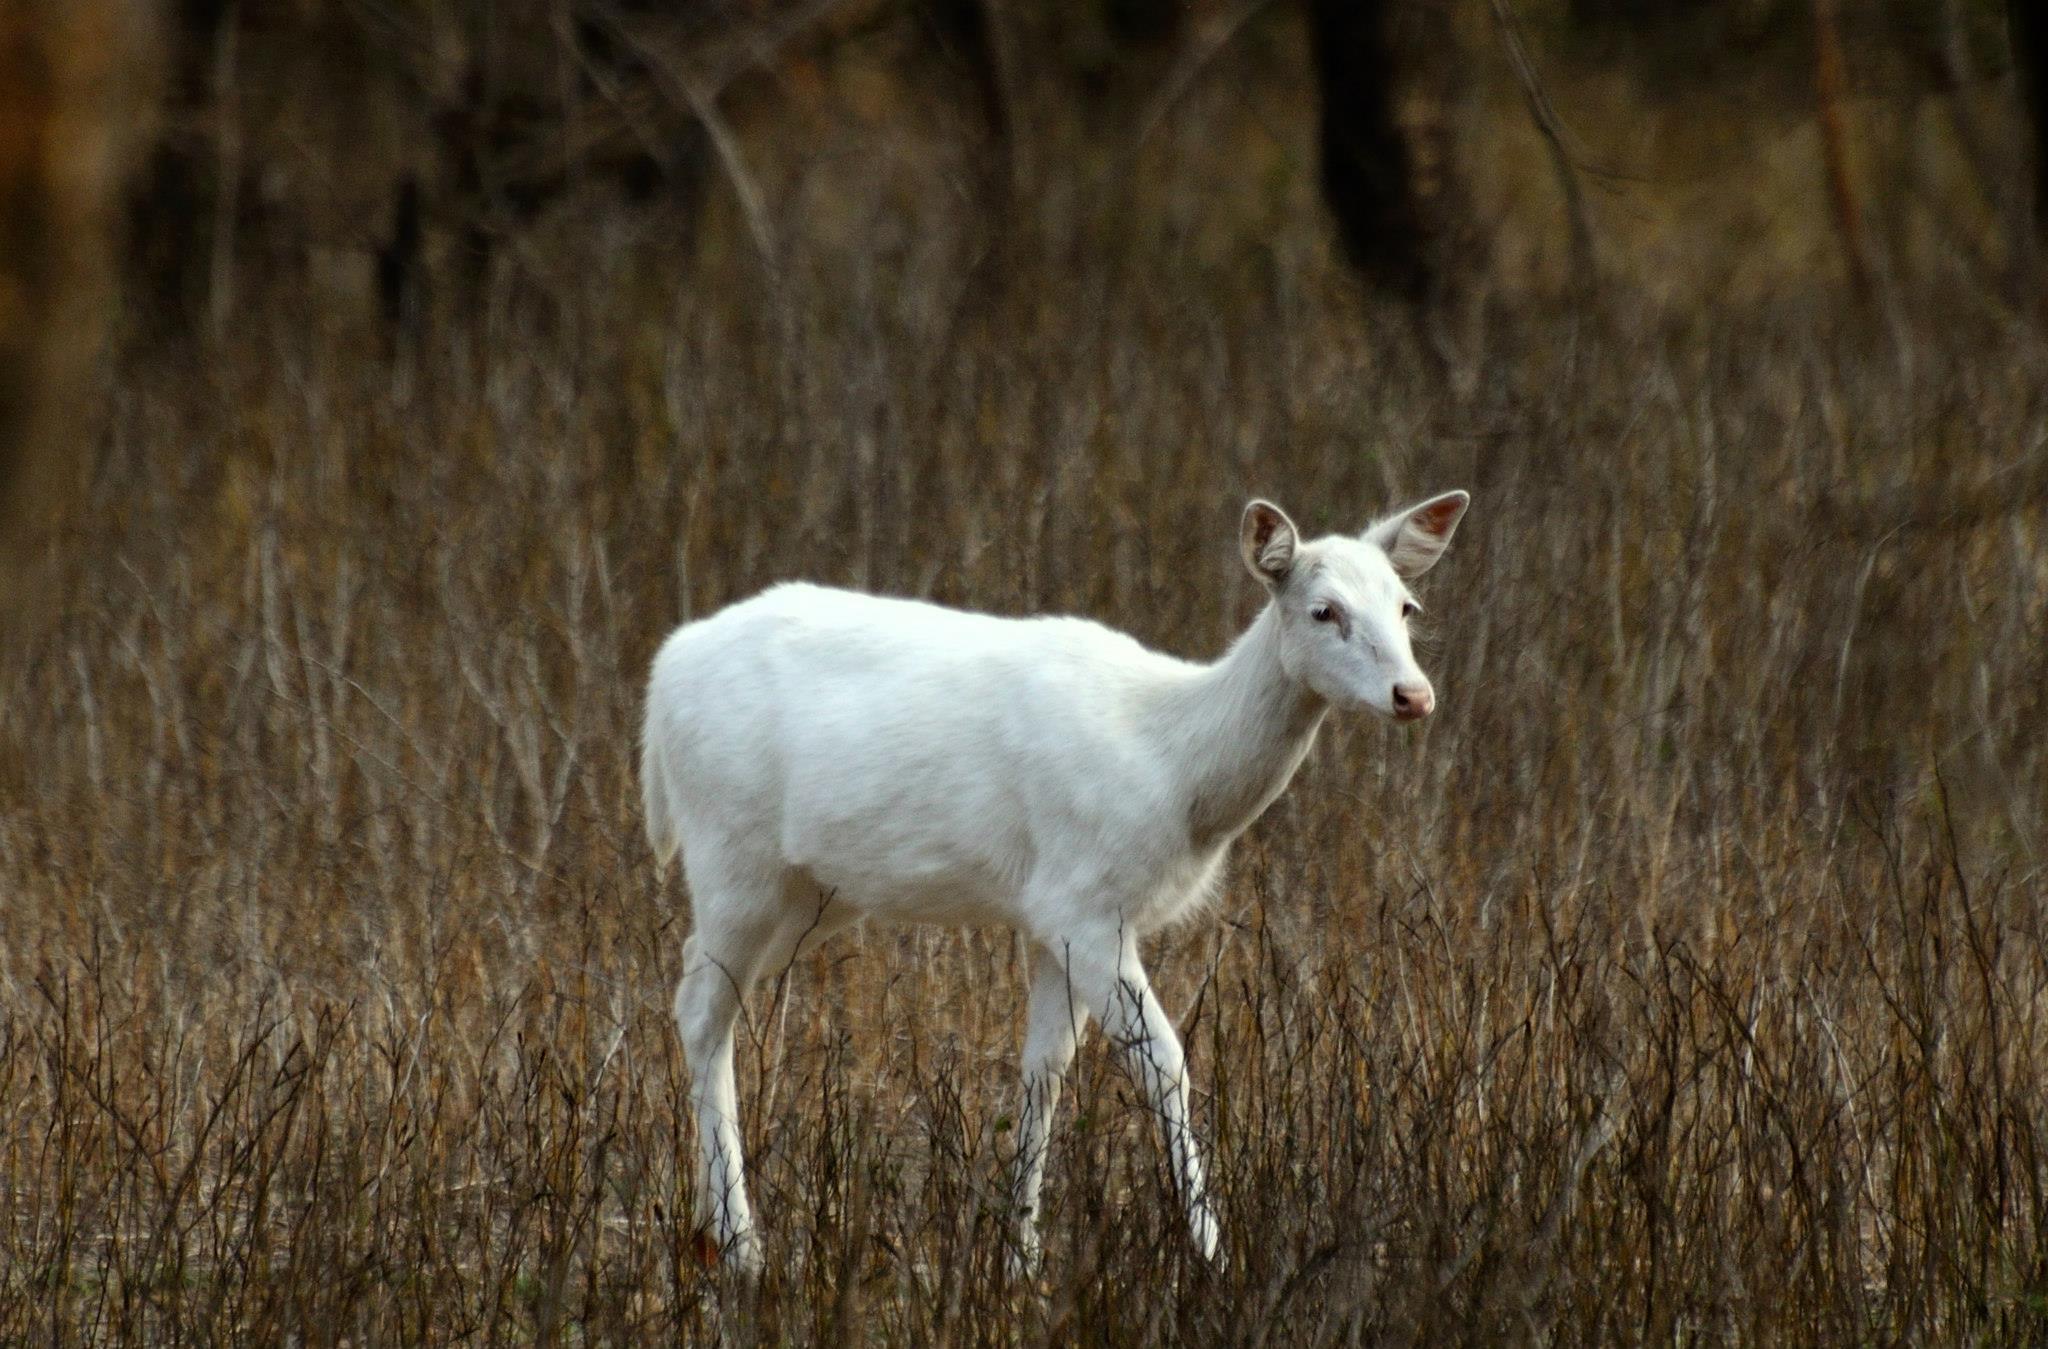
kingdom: Animalia
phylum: Chordata
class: Mammalia
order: Artiodactyla
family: Cervidae
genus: Axis
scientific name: Axis axis
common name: Chital
